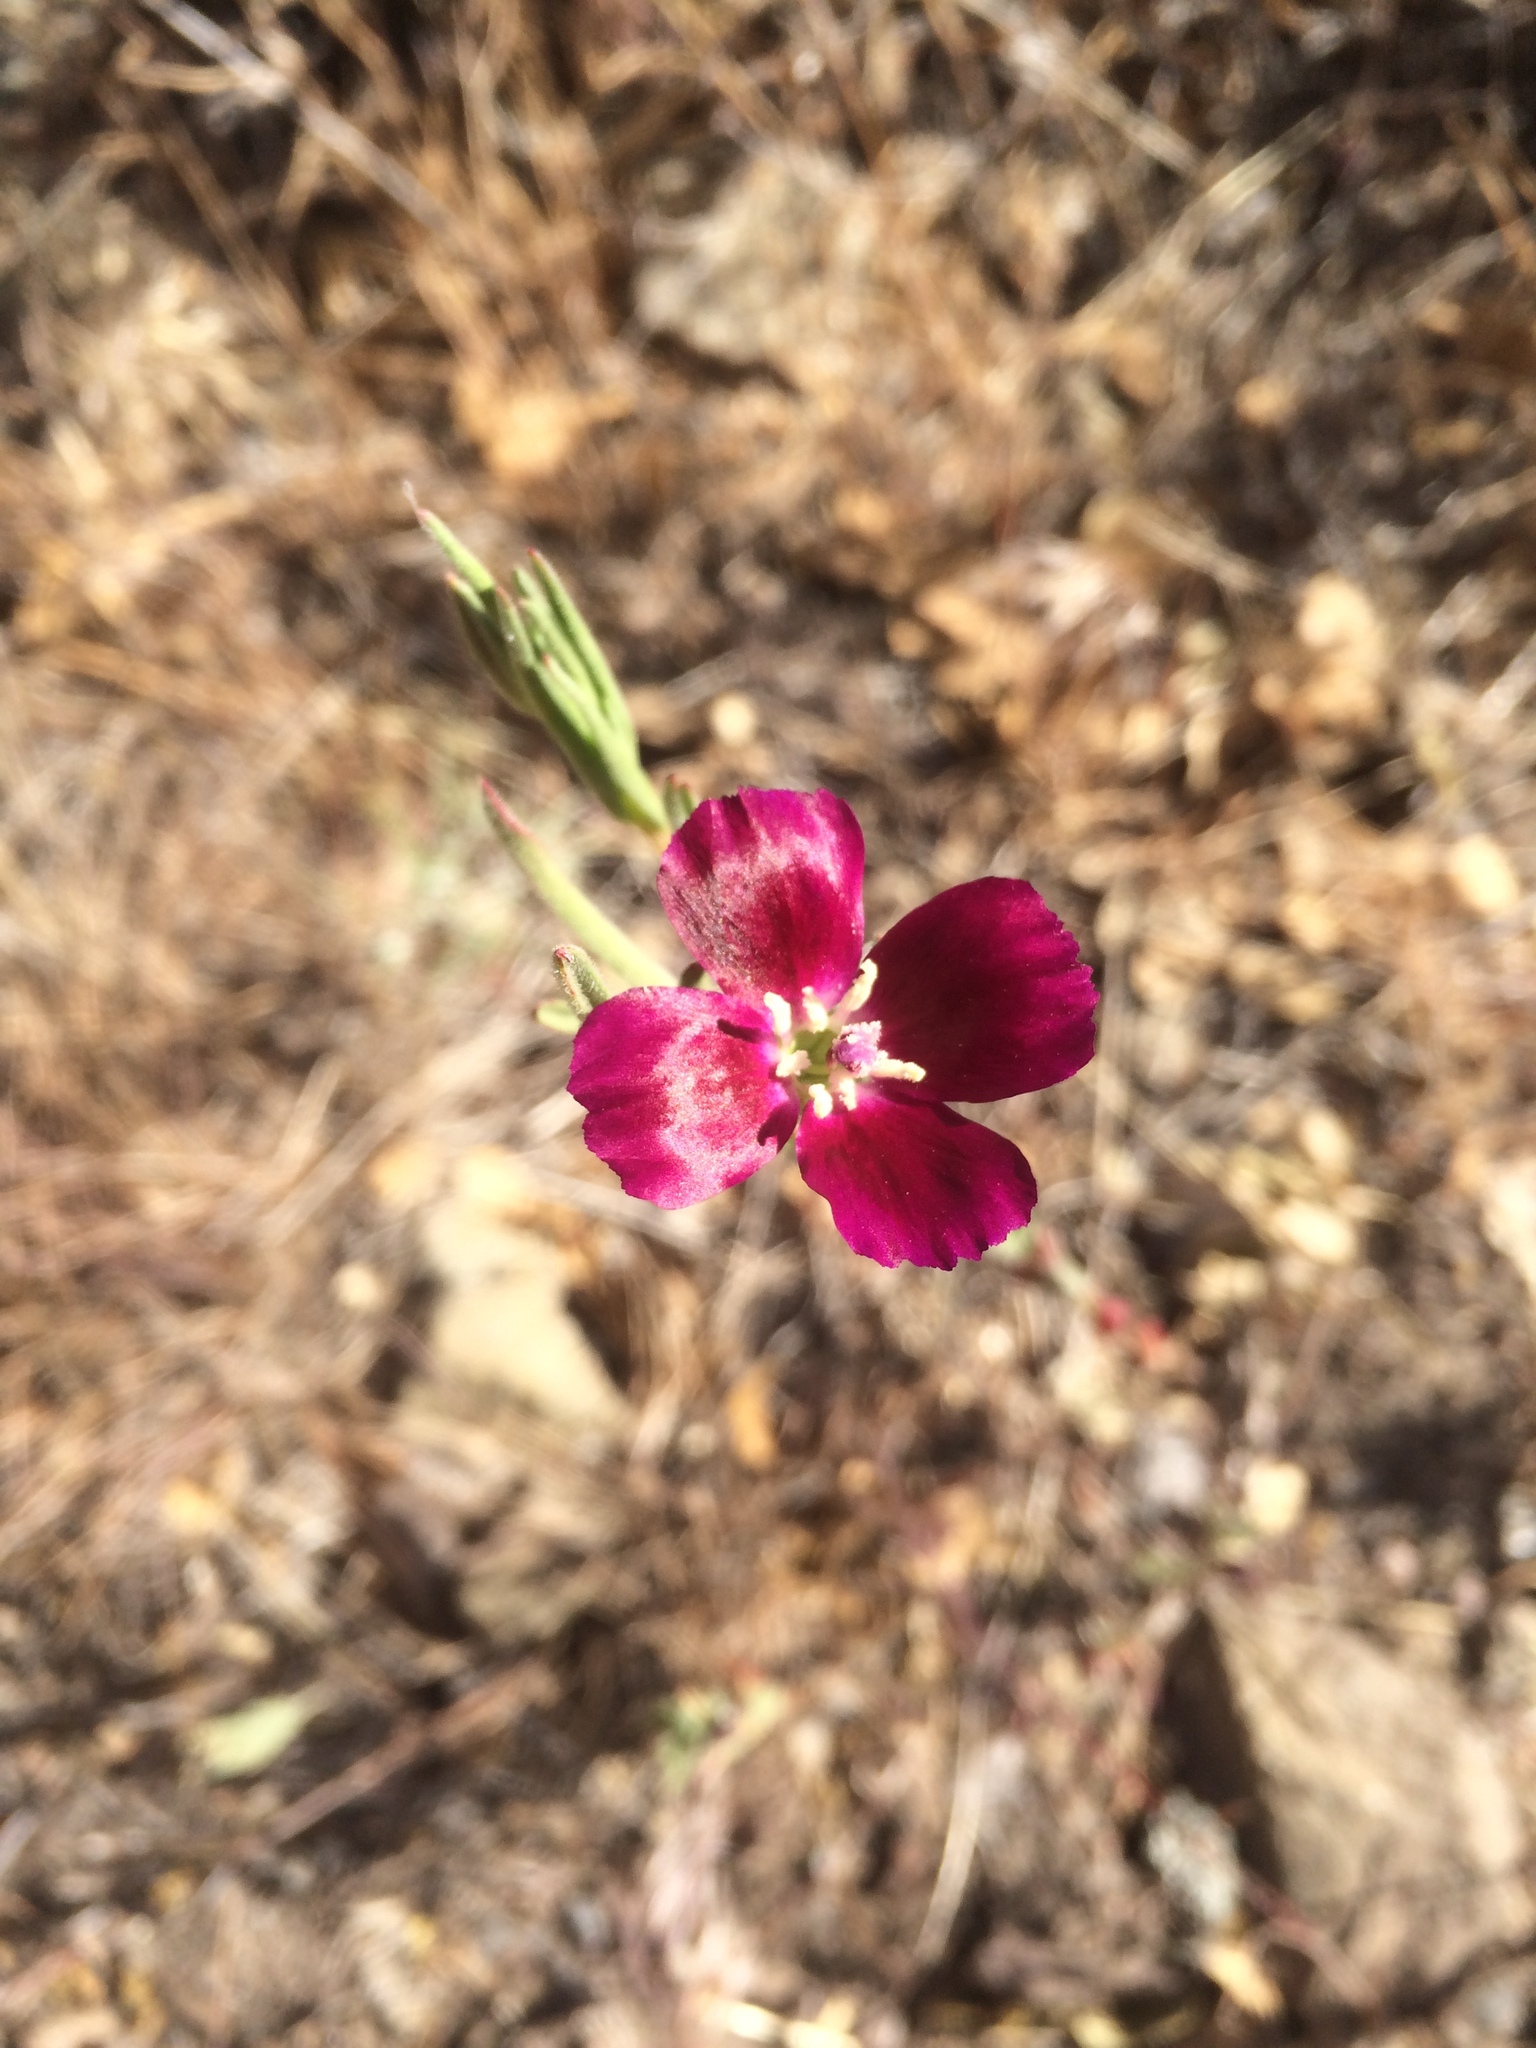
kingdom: Plantae
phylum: Tracheophyta
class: Magnoliopsida
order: Myrtales
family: Onagraceae
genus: Clarkia
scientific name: Clarkia purpurea
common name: Purple clarkia
